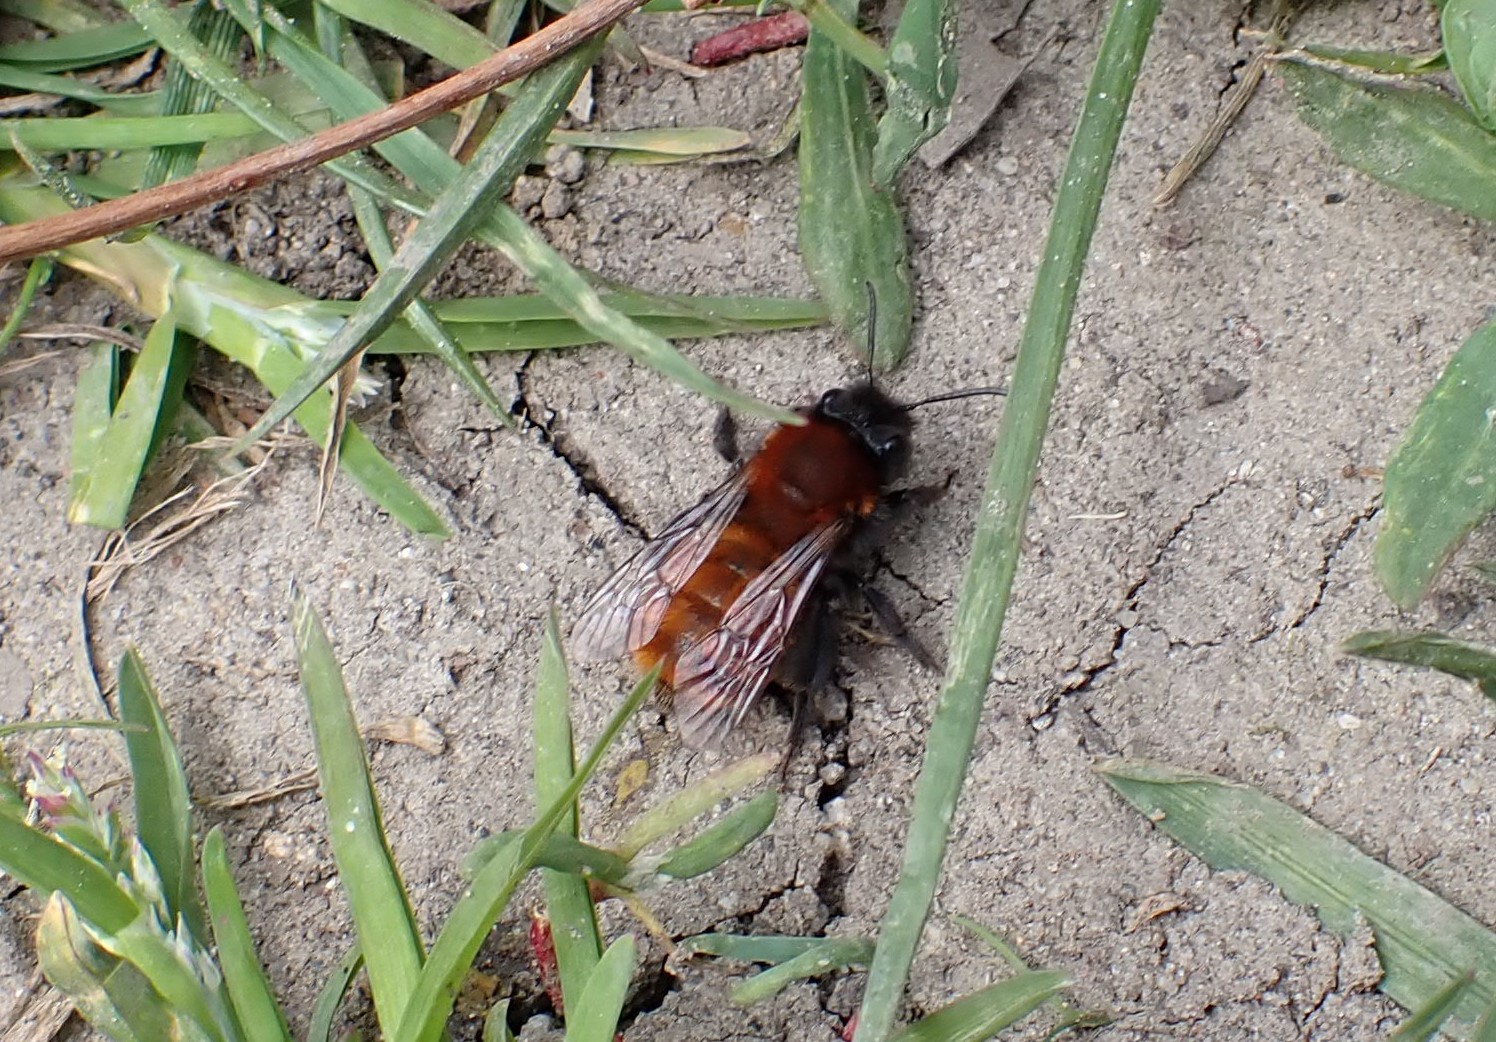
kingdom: Animalia
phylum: Arthropoda
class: Insecta
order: Hymenoptera
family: Andrenidae
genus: Andrena
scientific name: Andrena fulva
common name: Tawny mining bee
